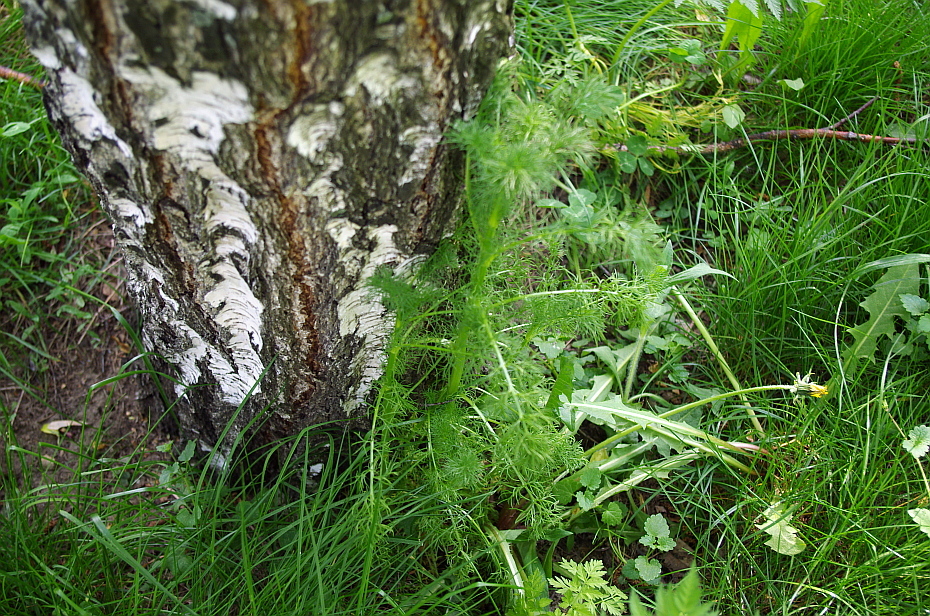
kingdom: Plantae
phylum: Tracheophyta
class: Magnoliopsida
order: Asterales
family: Asteraceae
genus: Tripleurospermum
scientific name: Tripleurospermum inodorum
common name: Scentless mayweed
